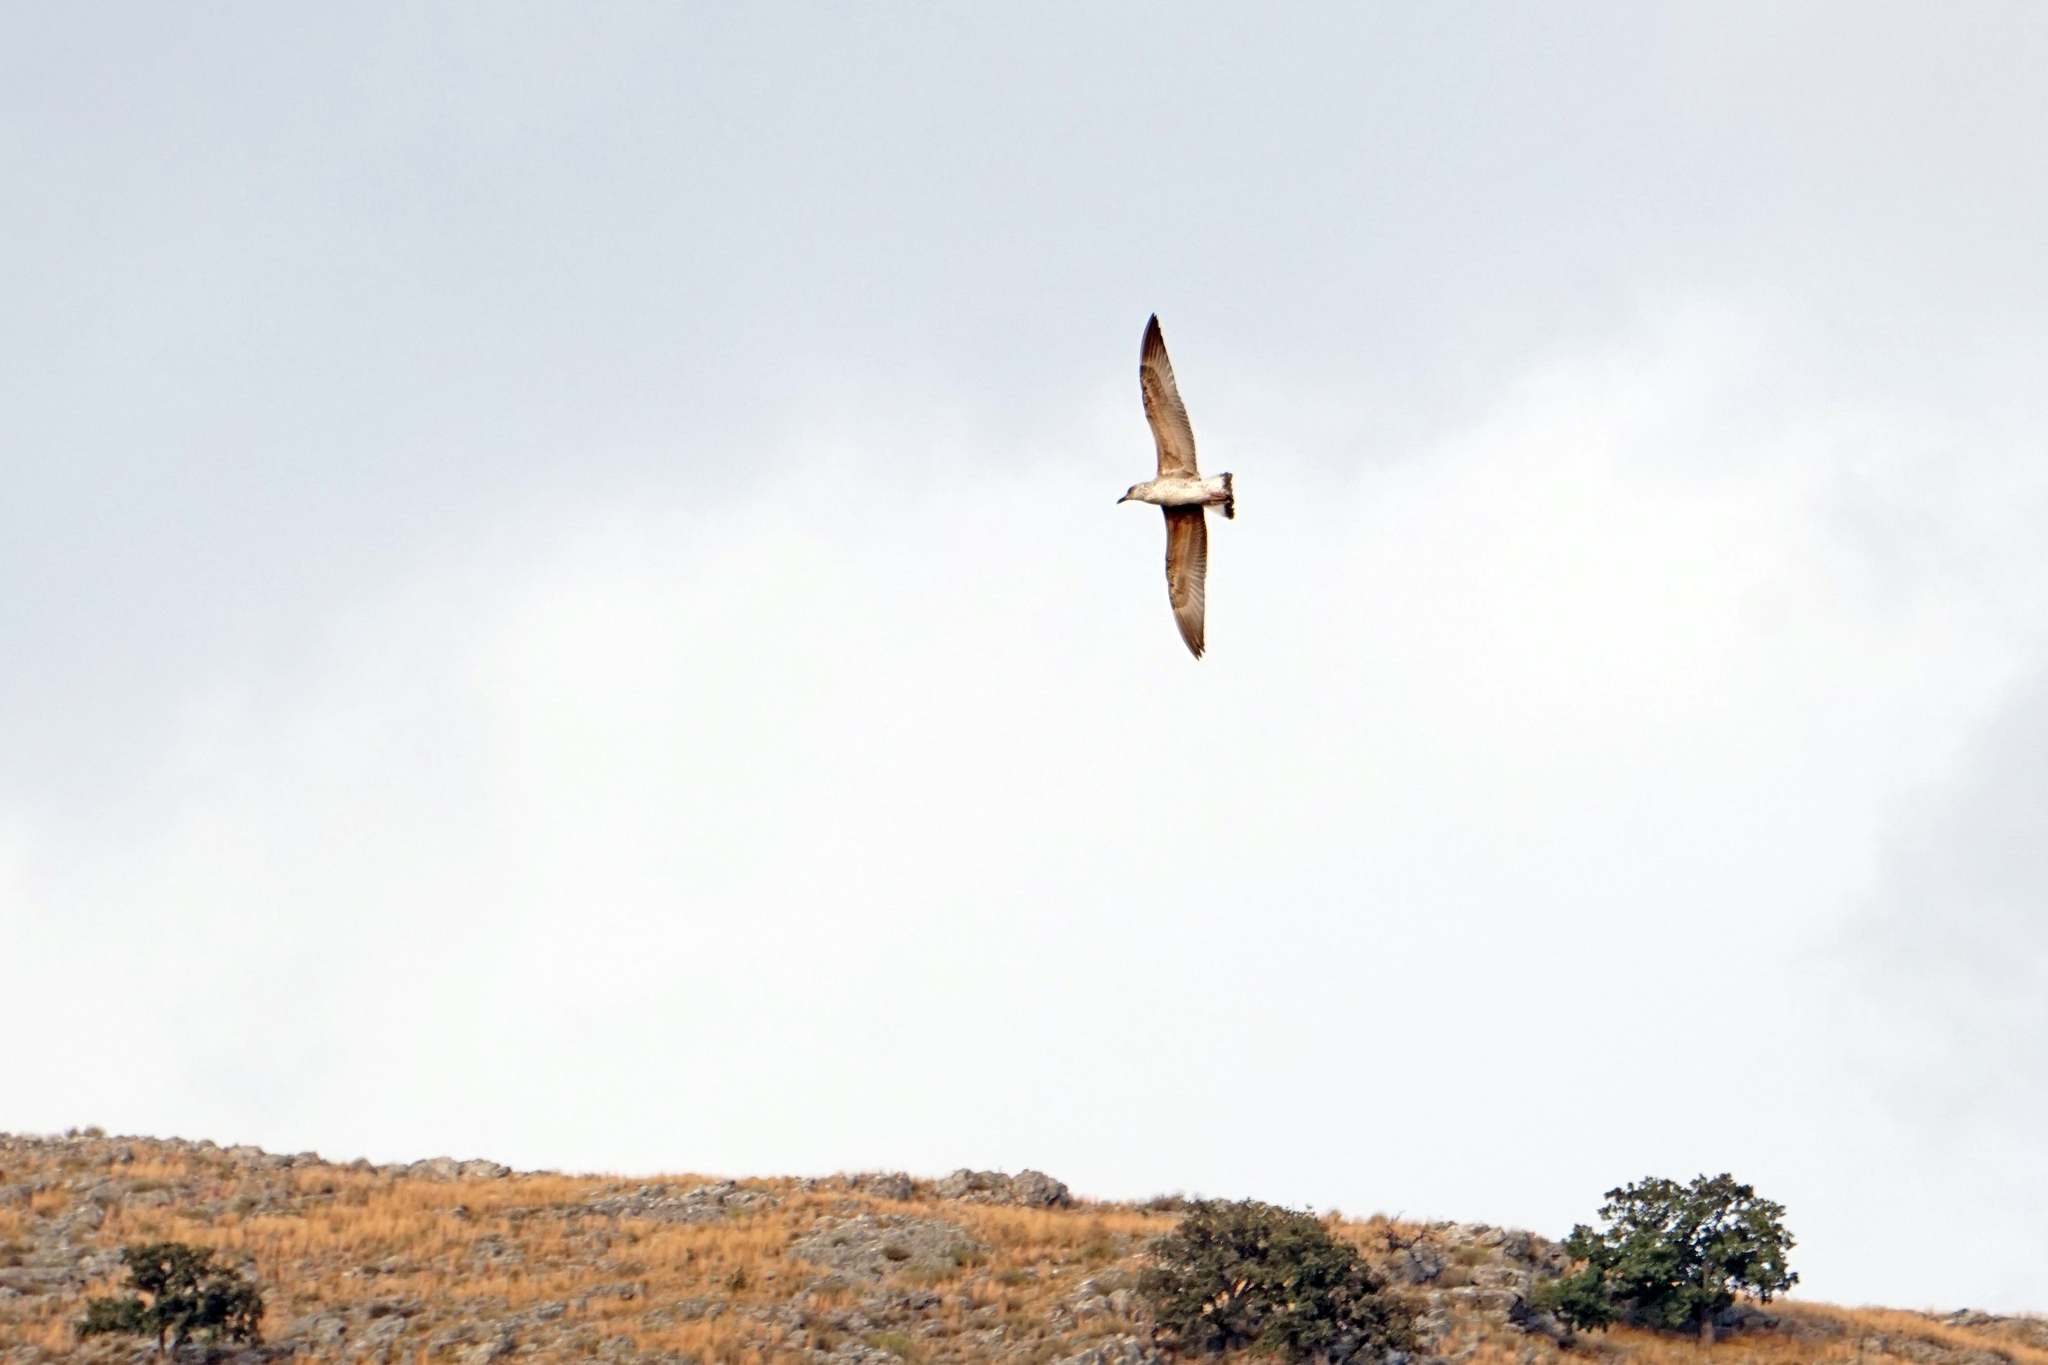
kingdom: Animalia
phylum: Chordata
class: Aves
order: Charadriiformes
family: Laridae
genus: Larus
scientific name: Larus michahellis
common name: Yellow-legged gull
